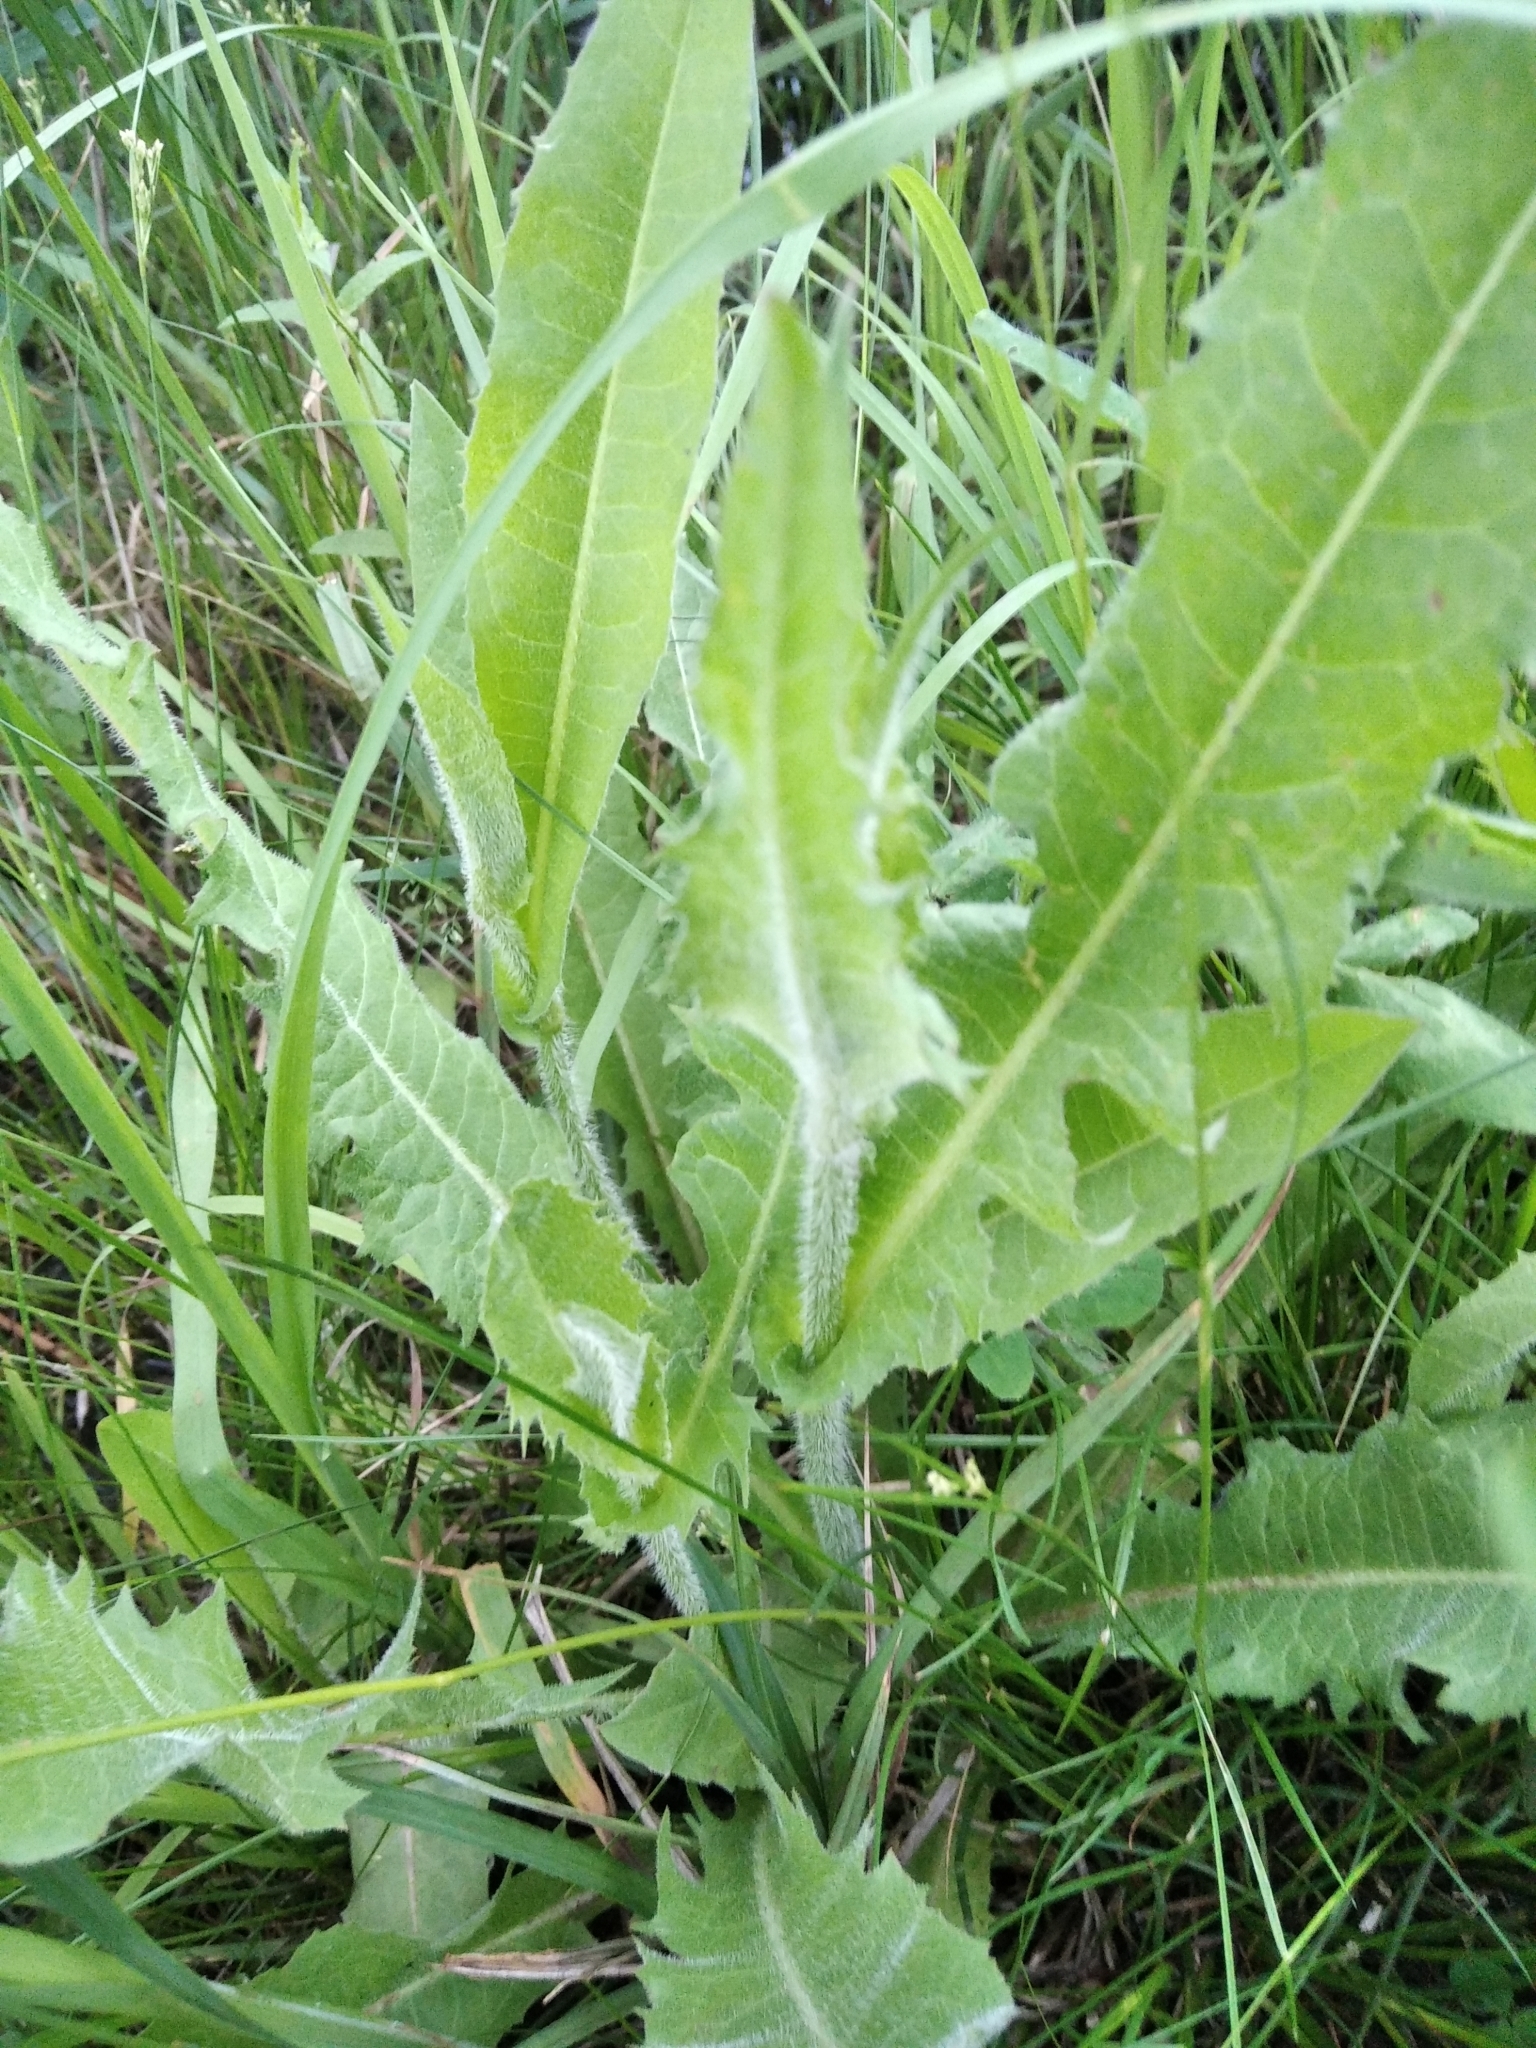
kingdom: Plantae
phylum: Tracheophyta
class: Magnoliopsida
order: Asterales
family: Asteraceae
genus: Cichorium
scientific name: Cichorium intybus
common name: Chicory
